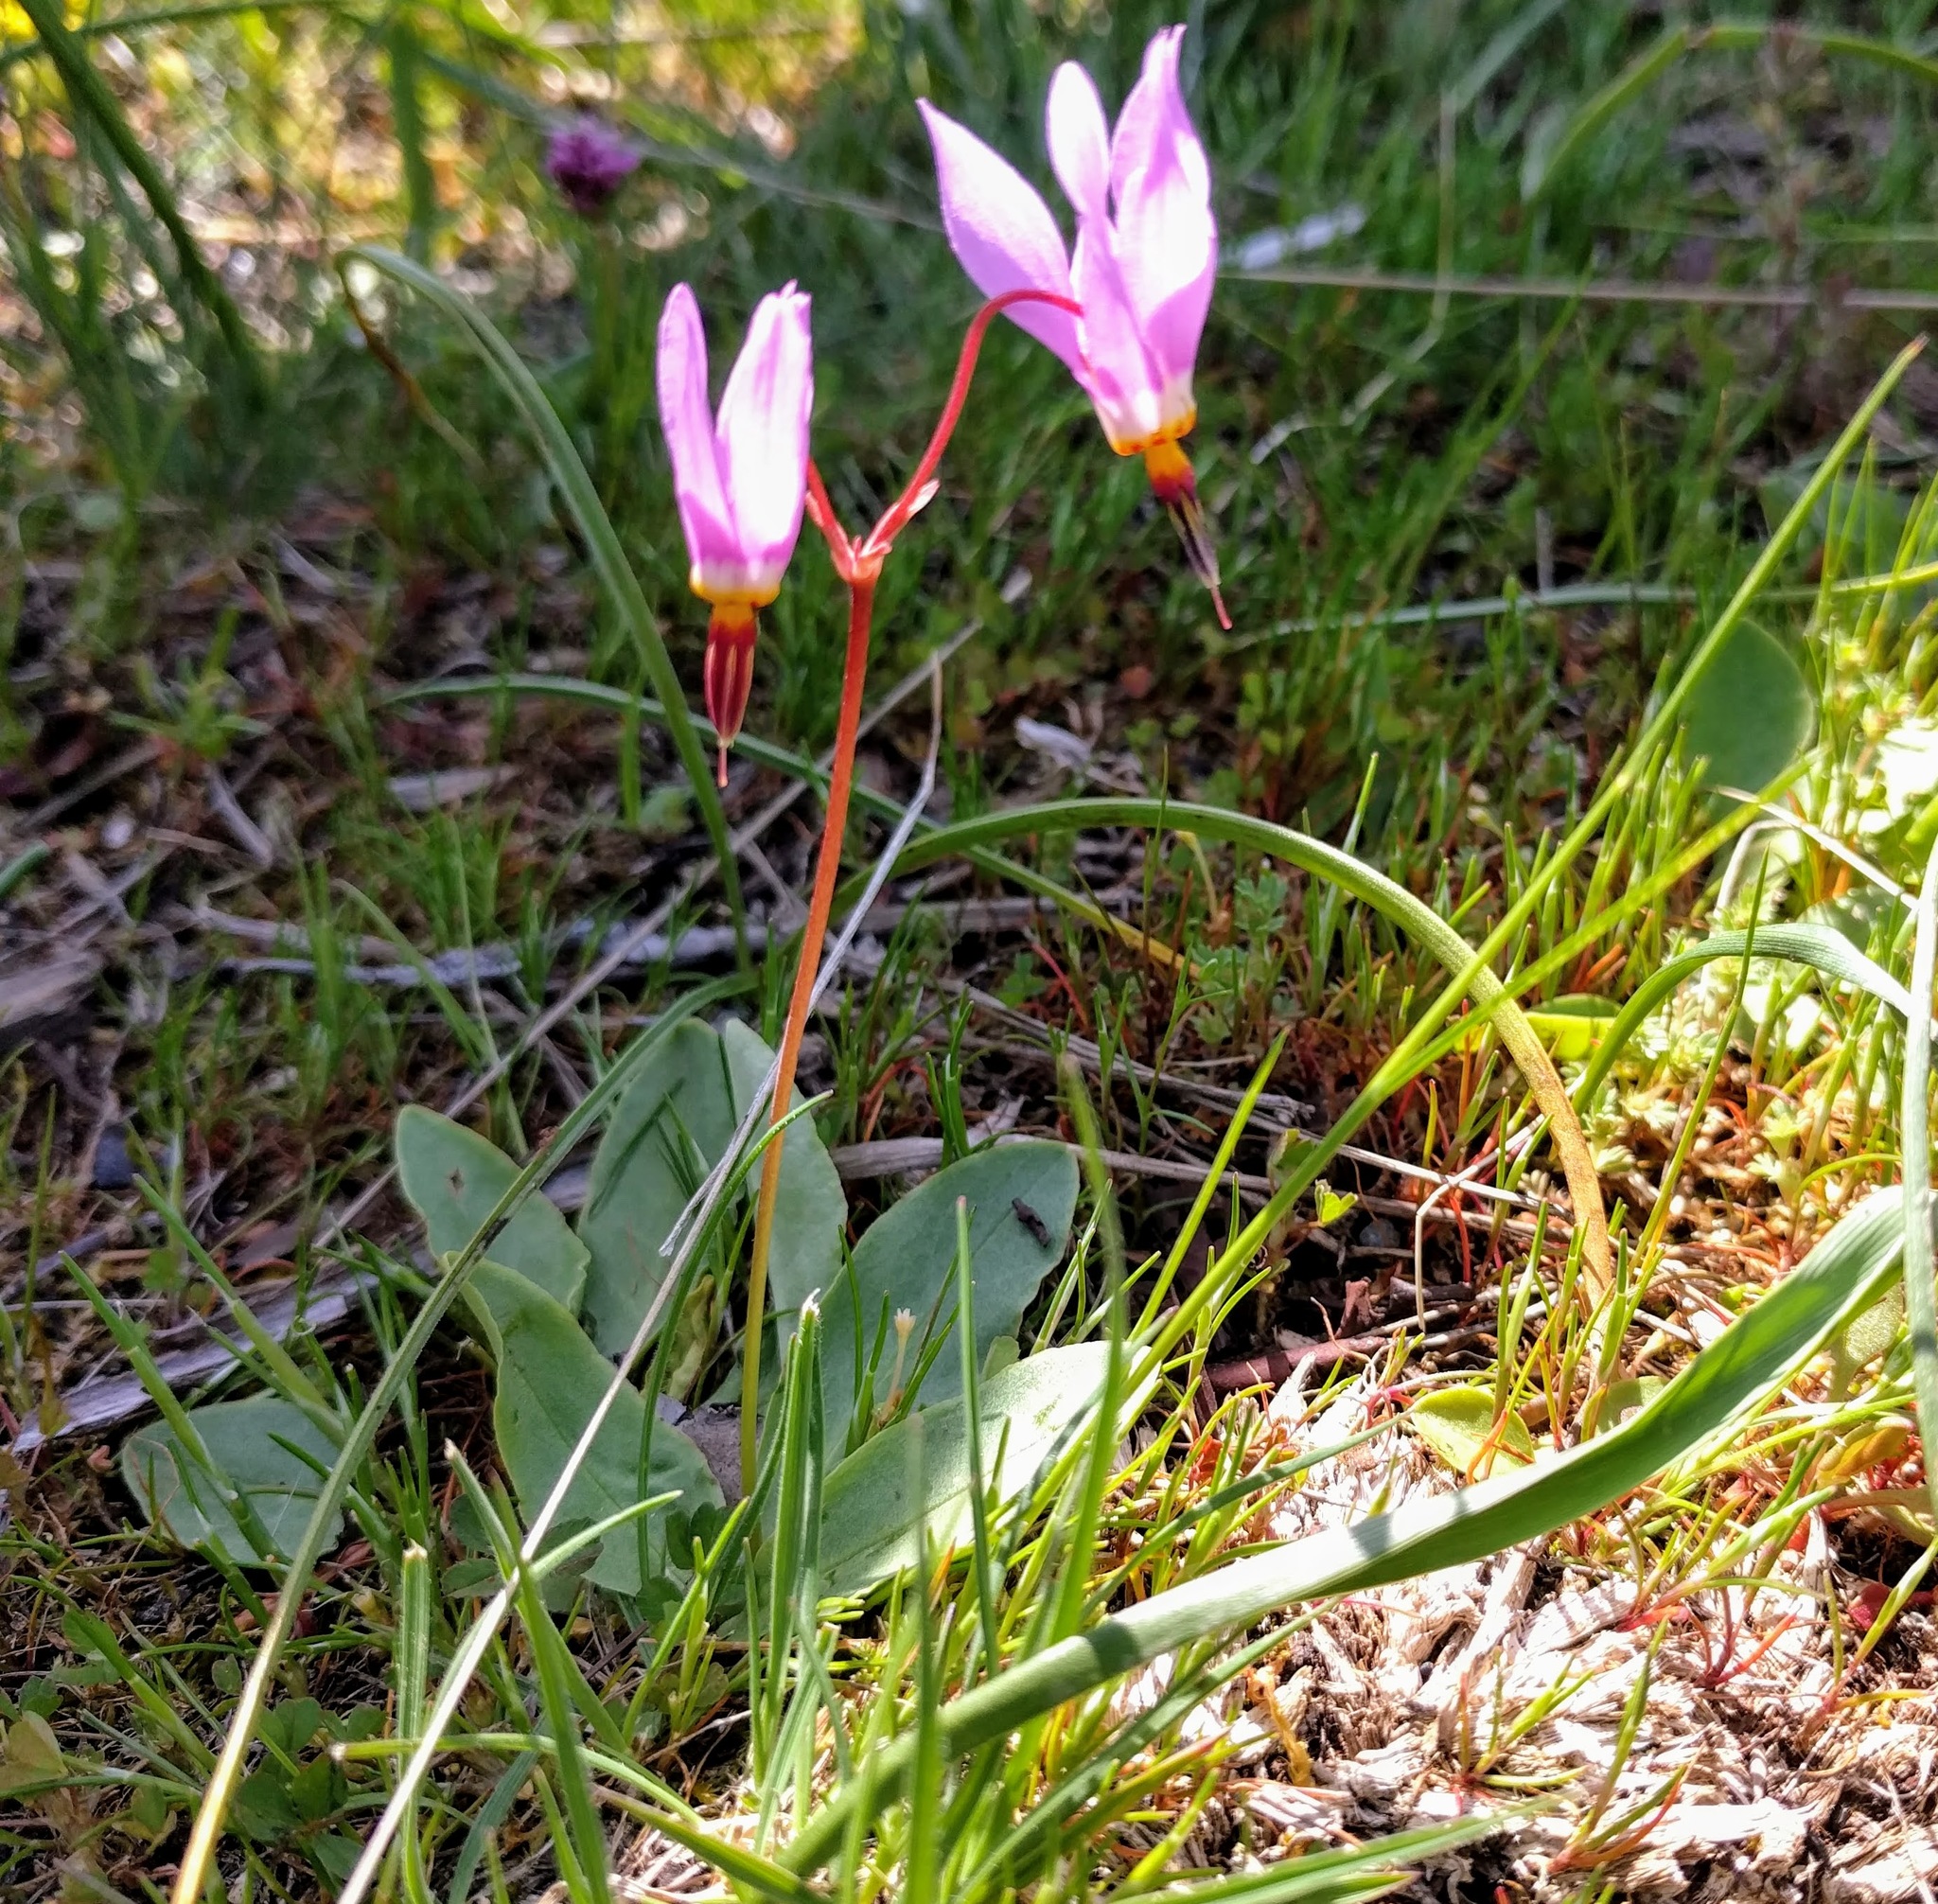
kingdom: Plantae
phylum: Tracheophyta
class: Magnoliopsida
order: Ericales
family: Primulaceae
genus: Dodecatheon
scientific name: Dodecatheon hendersonii
